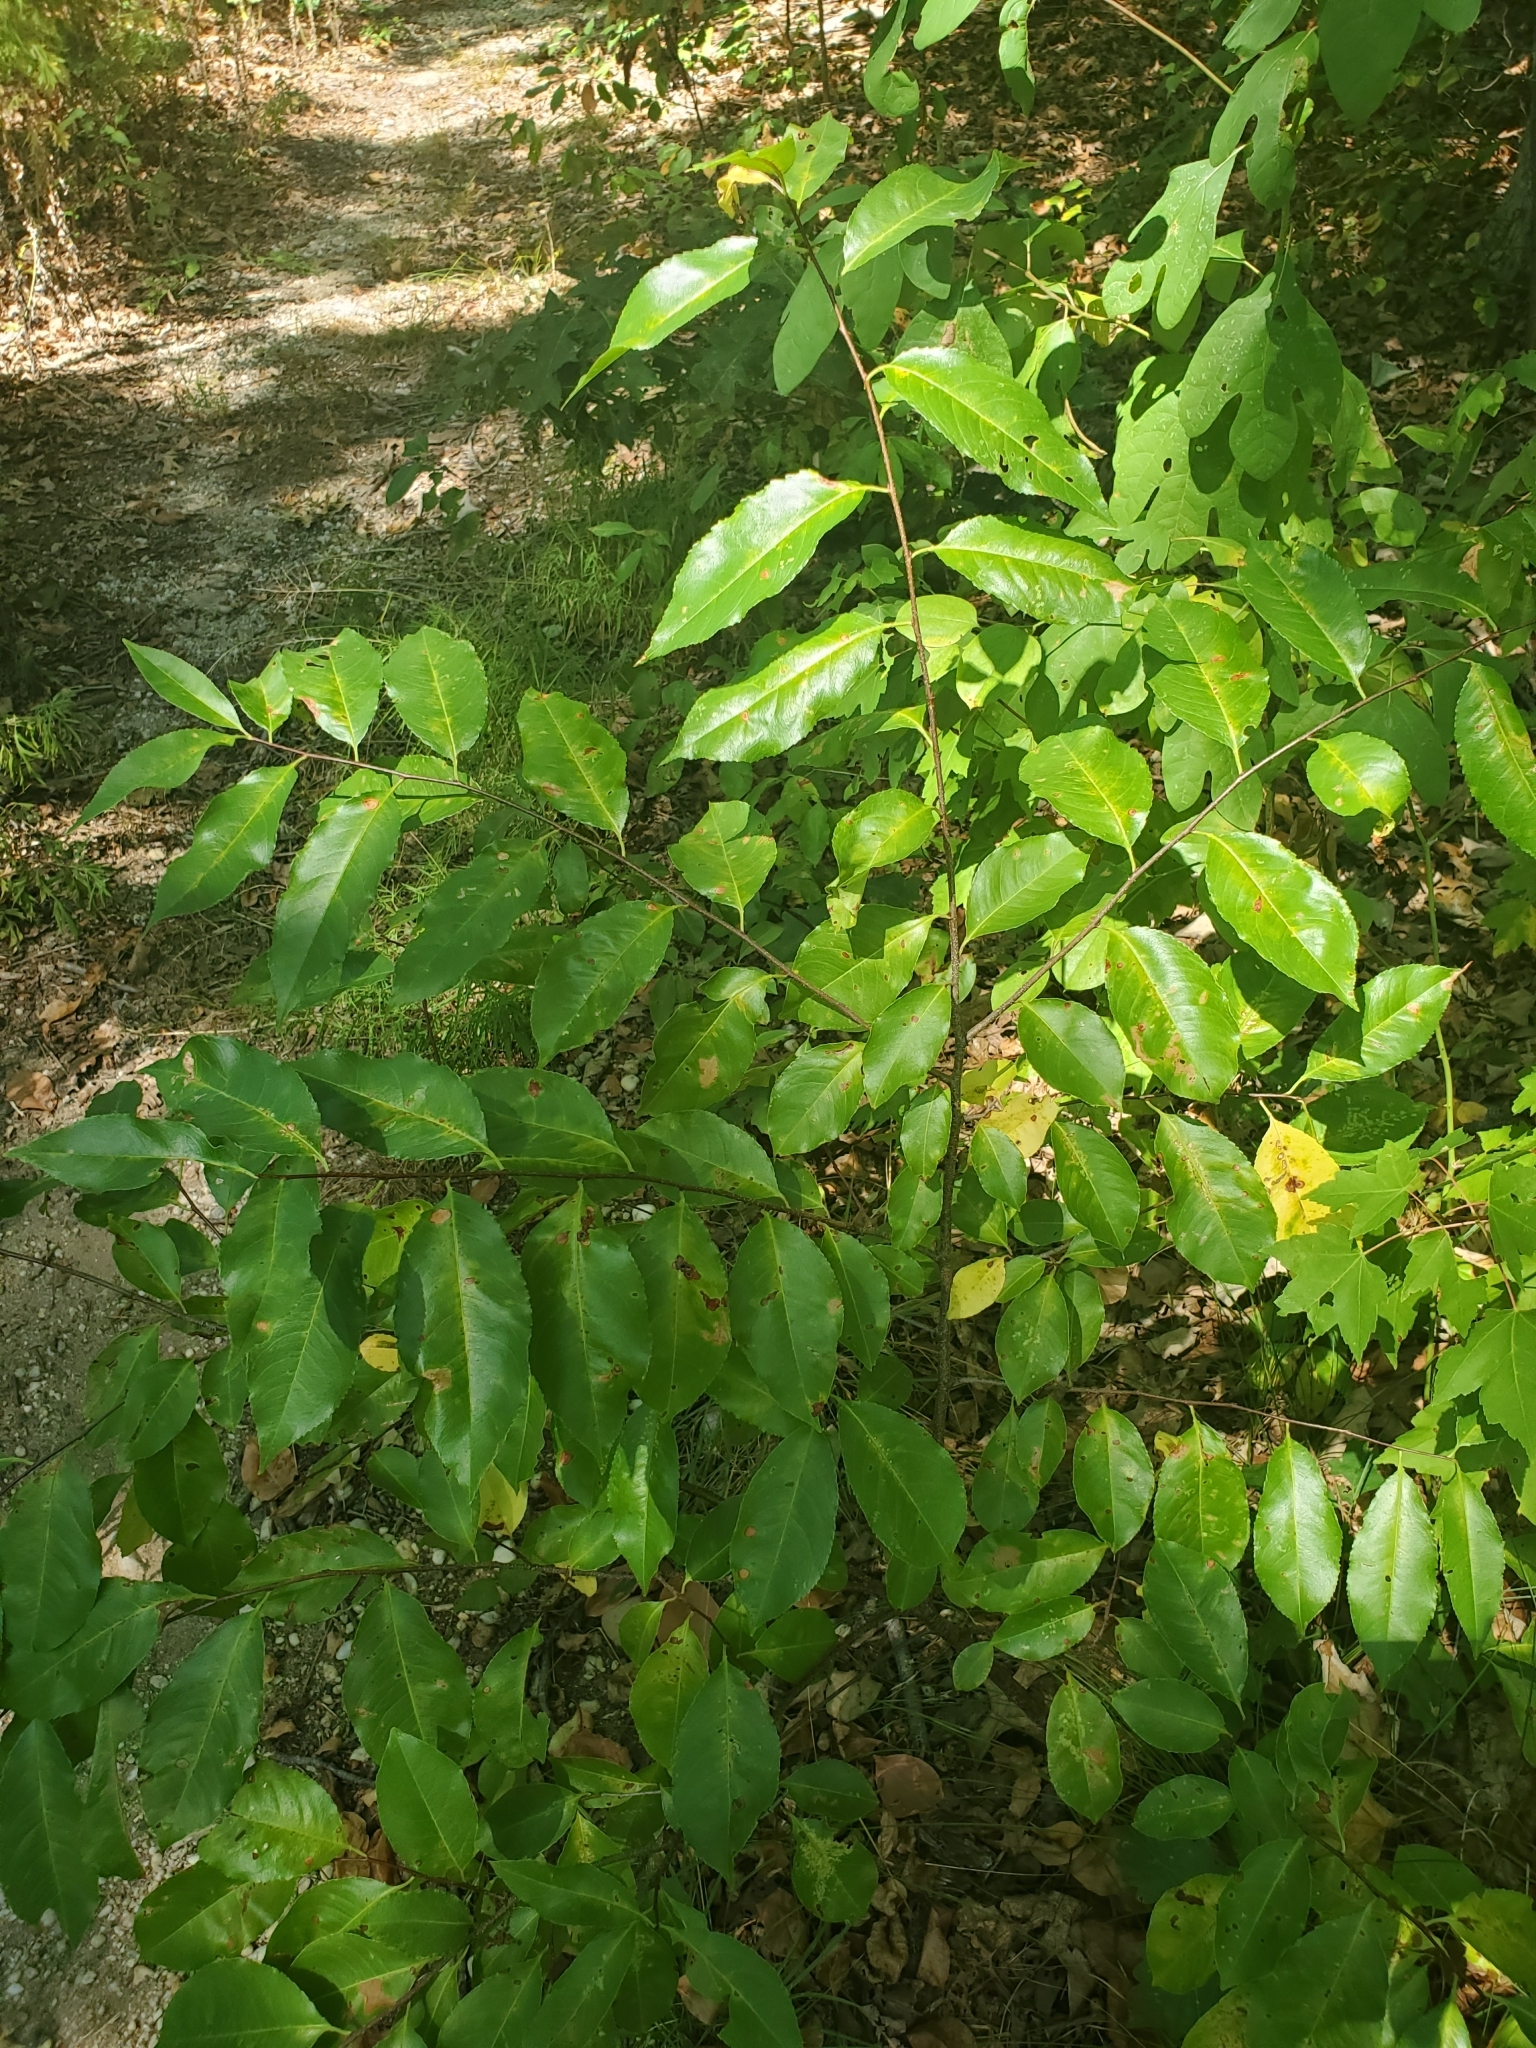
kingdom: Plantae
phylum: Tracheophyta
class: Magnoliopsida
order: Rosales
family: Rosaceae
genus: Prunus
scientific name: Prunus serotina
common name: Black cherry
